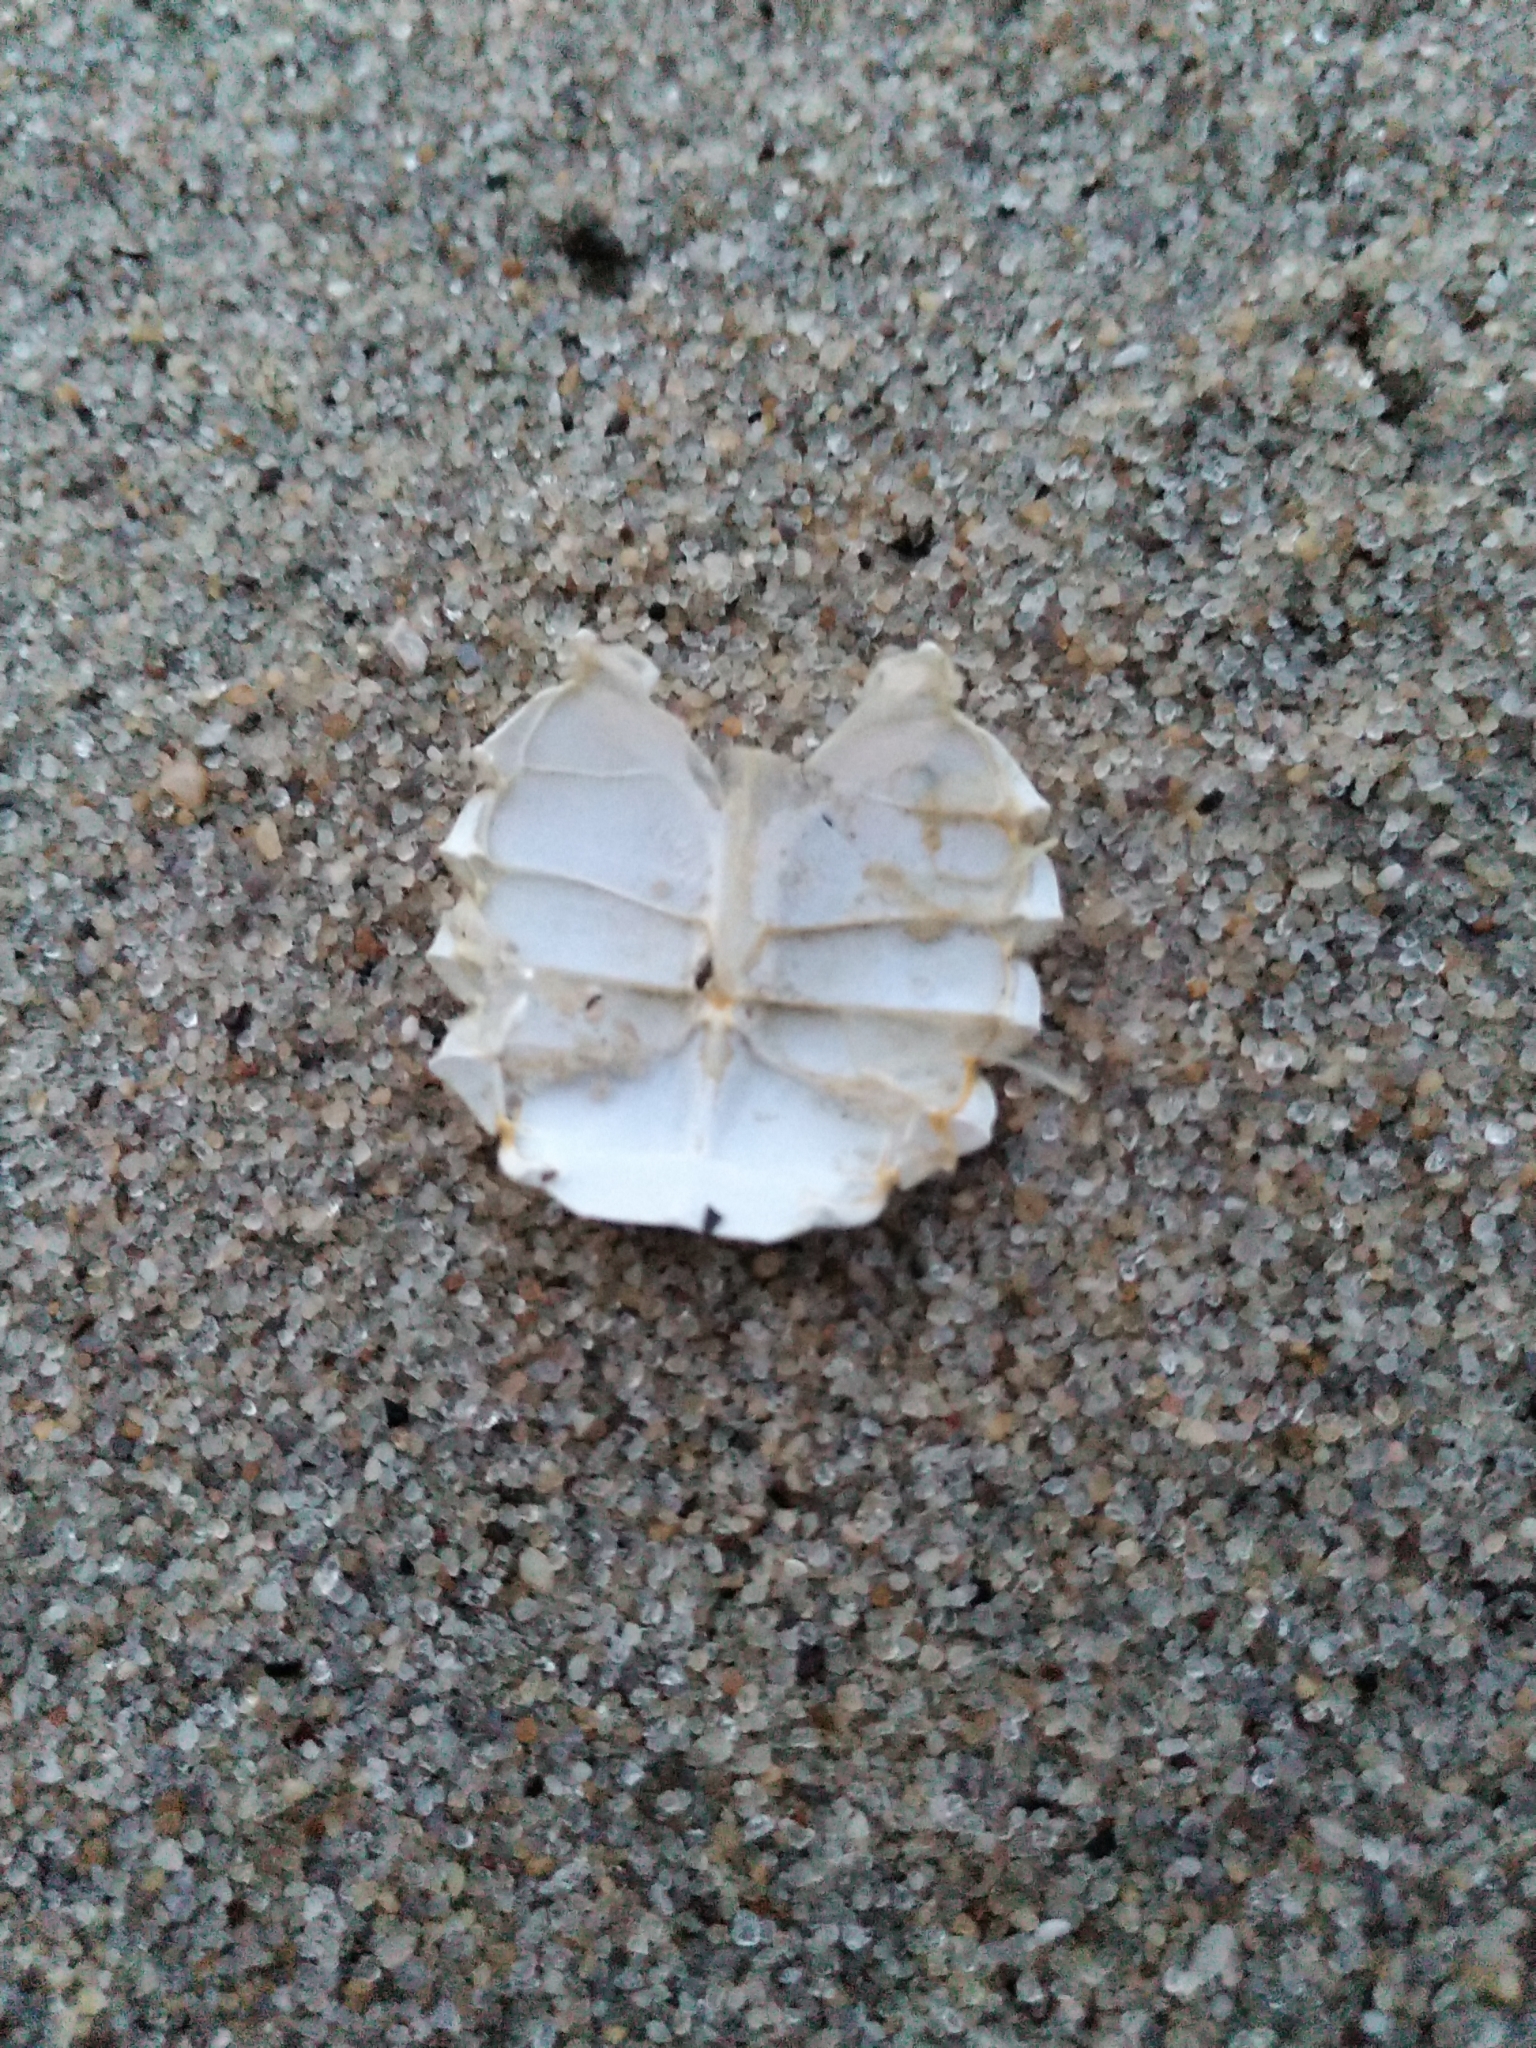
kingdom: Animalia
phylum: Arthropoda
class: Malacostraca
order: Decapoda
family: Portunidae
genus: Callinectes
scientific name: Callinectes sapidus
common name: Blue crab
